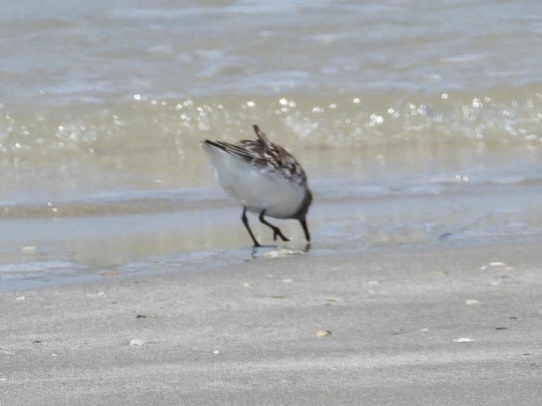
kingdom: Animalia
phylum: Chordata
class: Aves
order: Charadriiformes
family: Scolopacidae
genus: Calidris
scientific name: Calidris alba
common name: Sanderling
